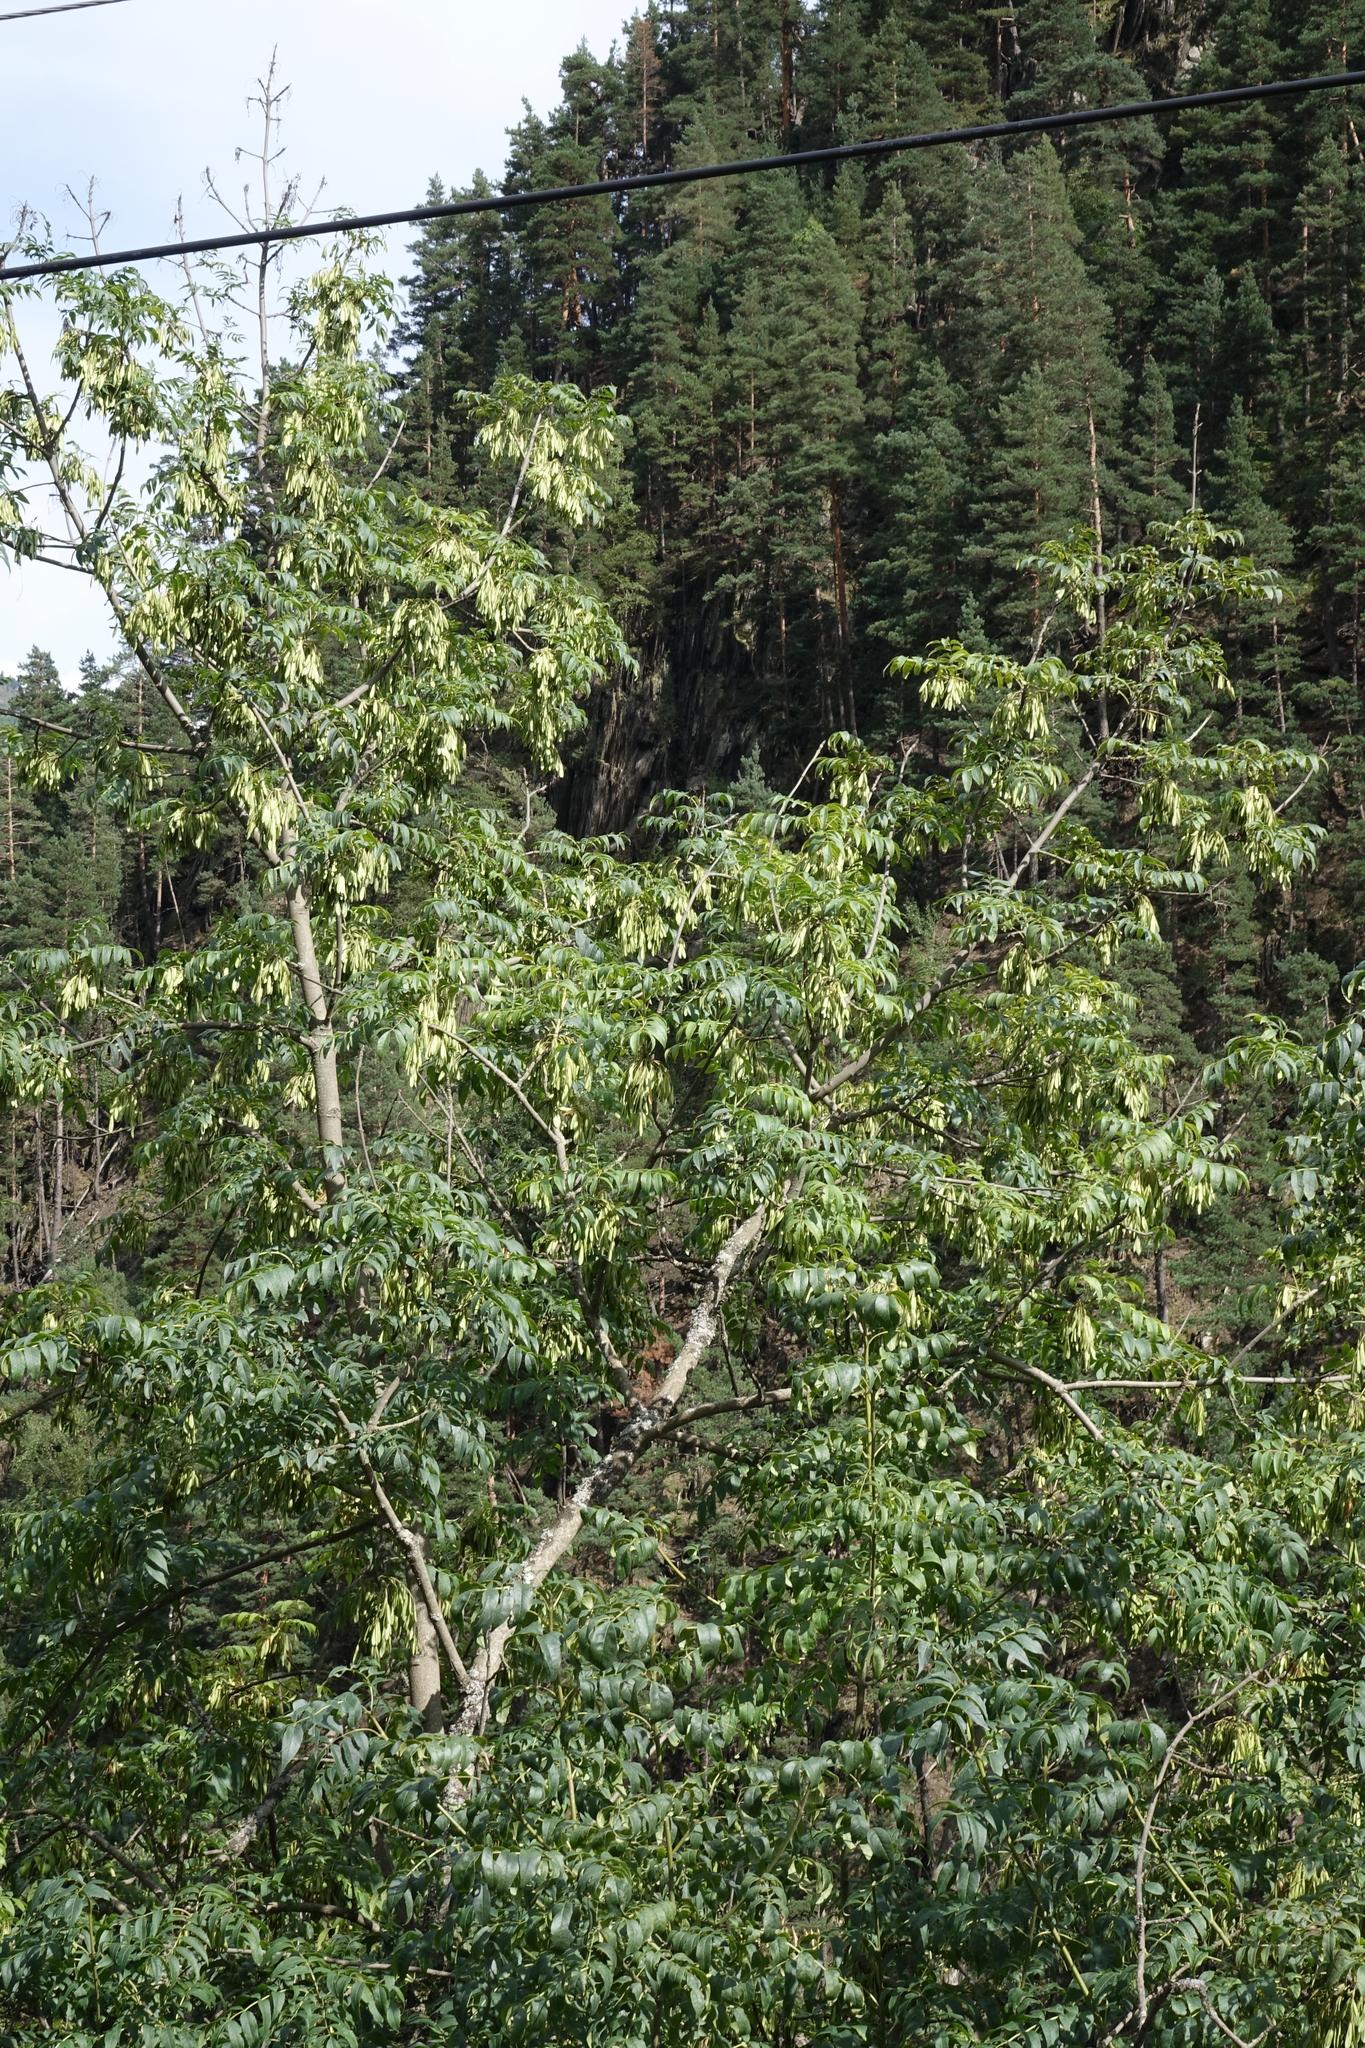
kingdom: Plantae
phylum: Tracheophyta
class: Magnoliopsida
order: Lamiales
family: Oleaceae
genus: Fraxinus
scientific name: Fraxinus excelsior
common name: European ash
